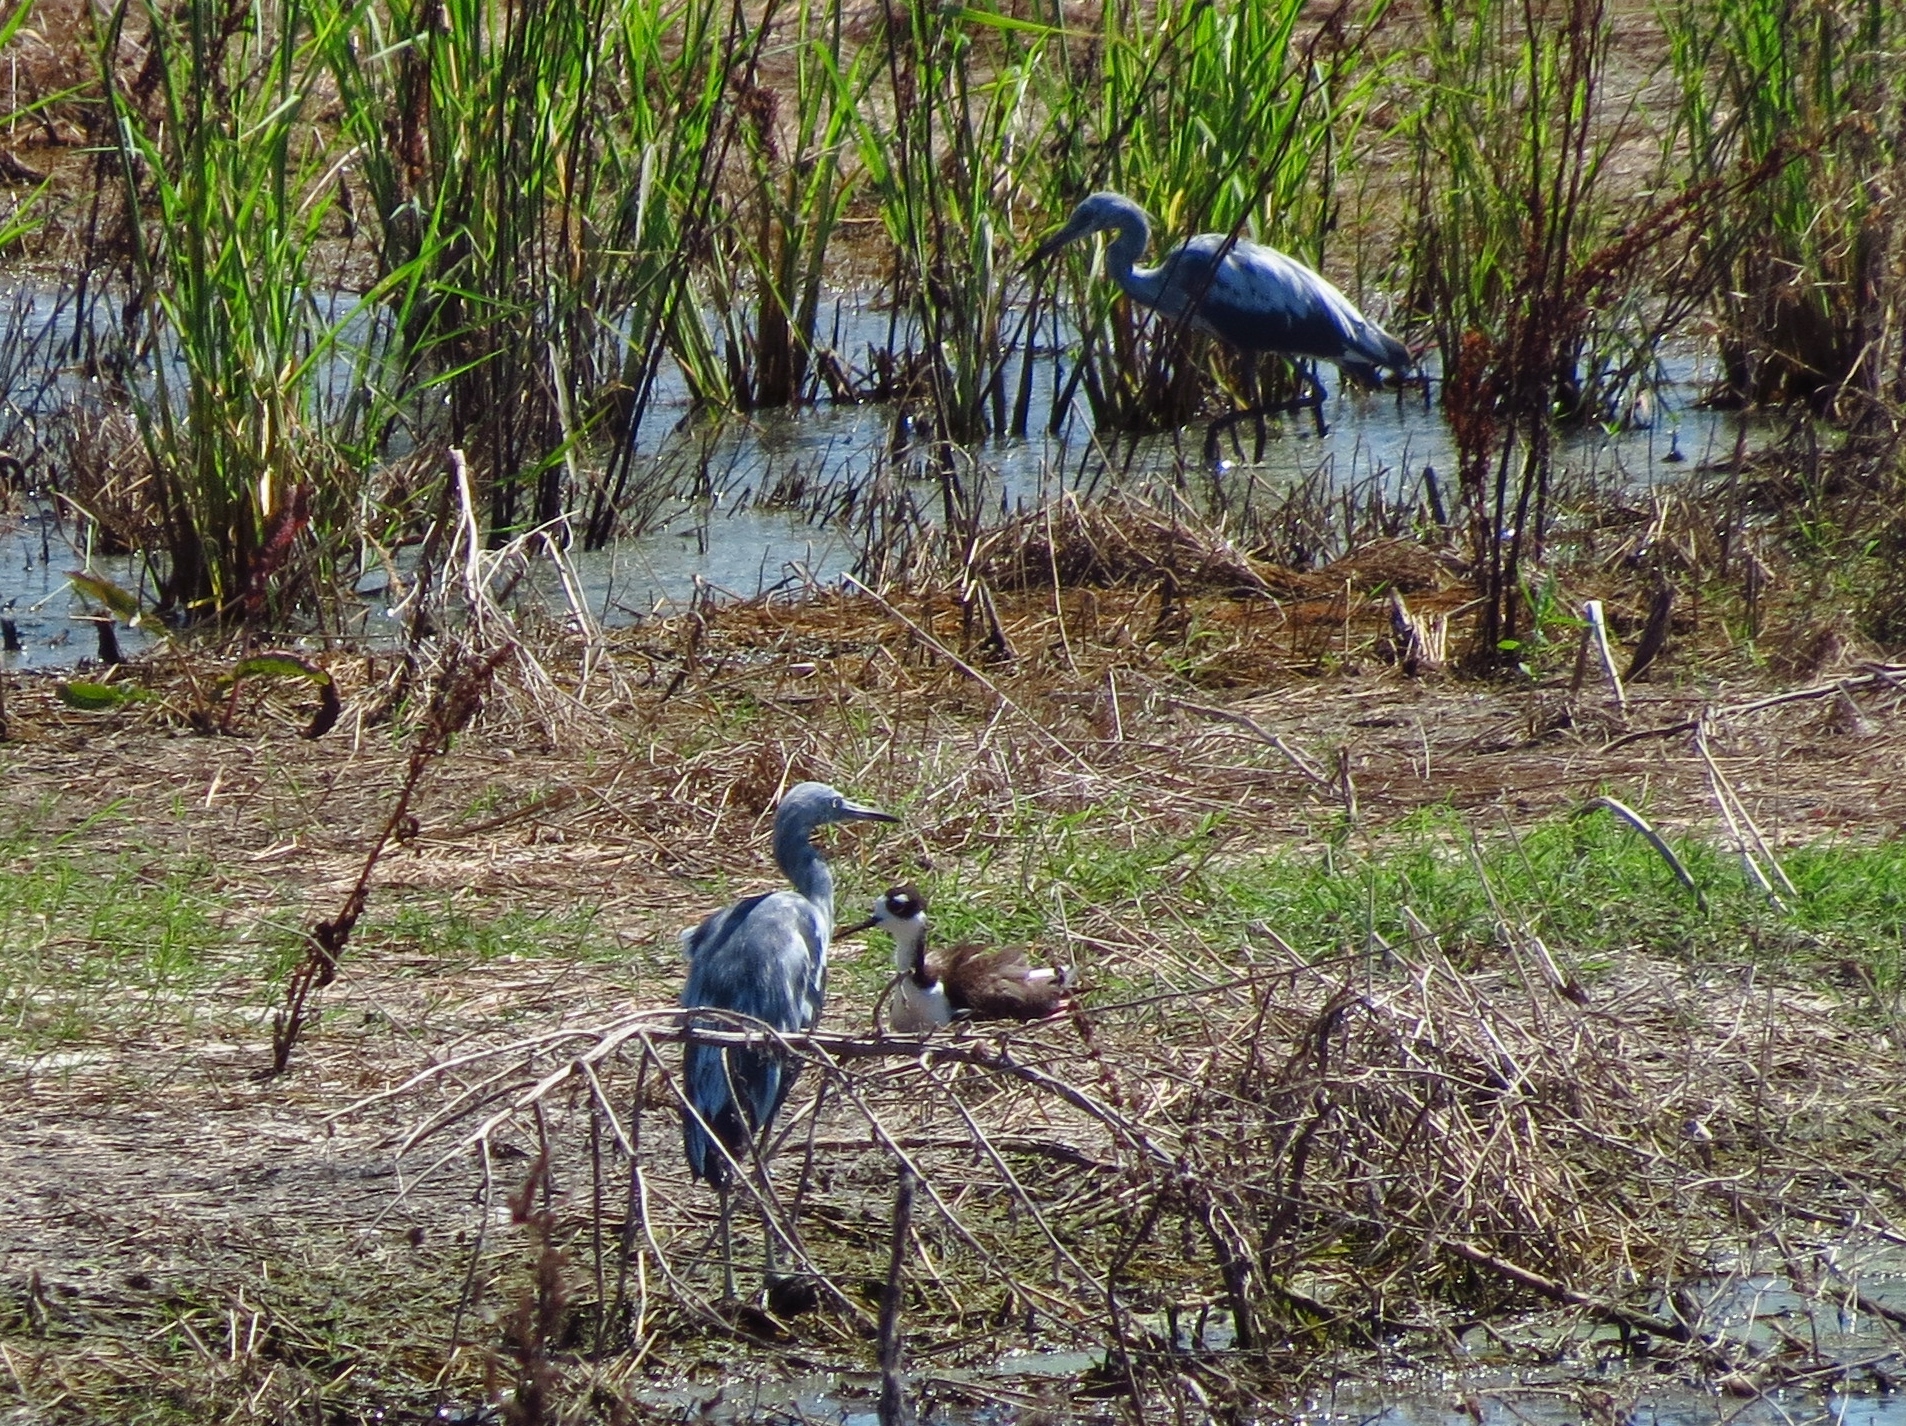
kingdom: Animalia
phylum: Chordata
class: Aves
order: Pelecaniformes
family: Ardeidae
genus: Egretta
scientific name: Egretta caerulea
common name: Little blue heron
